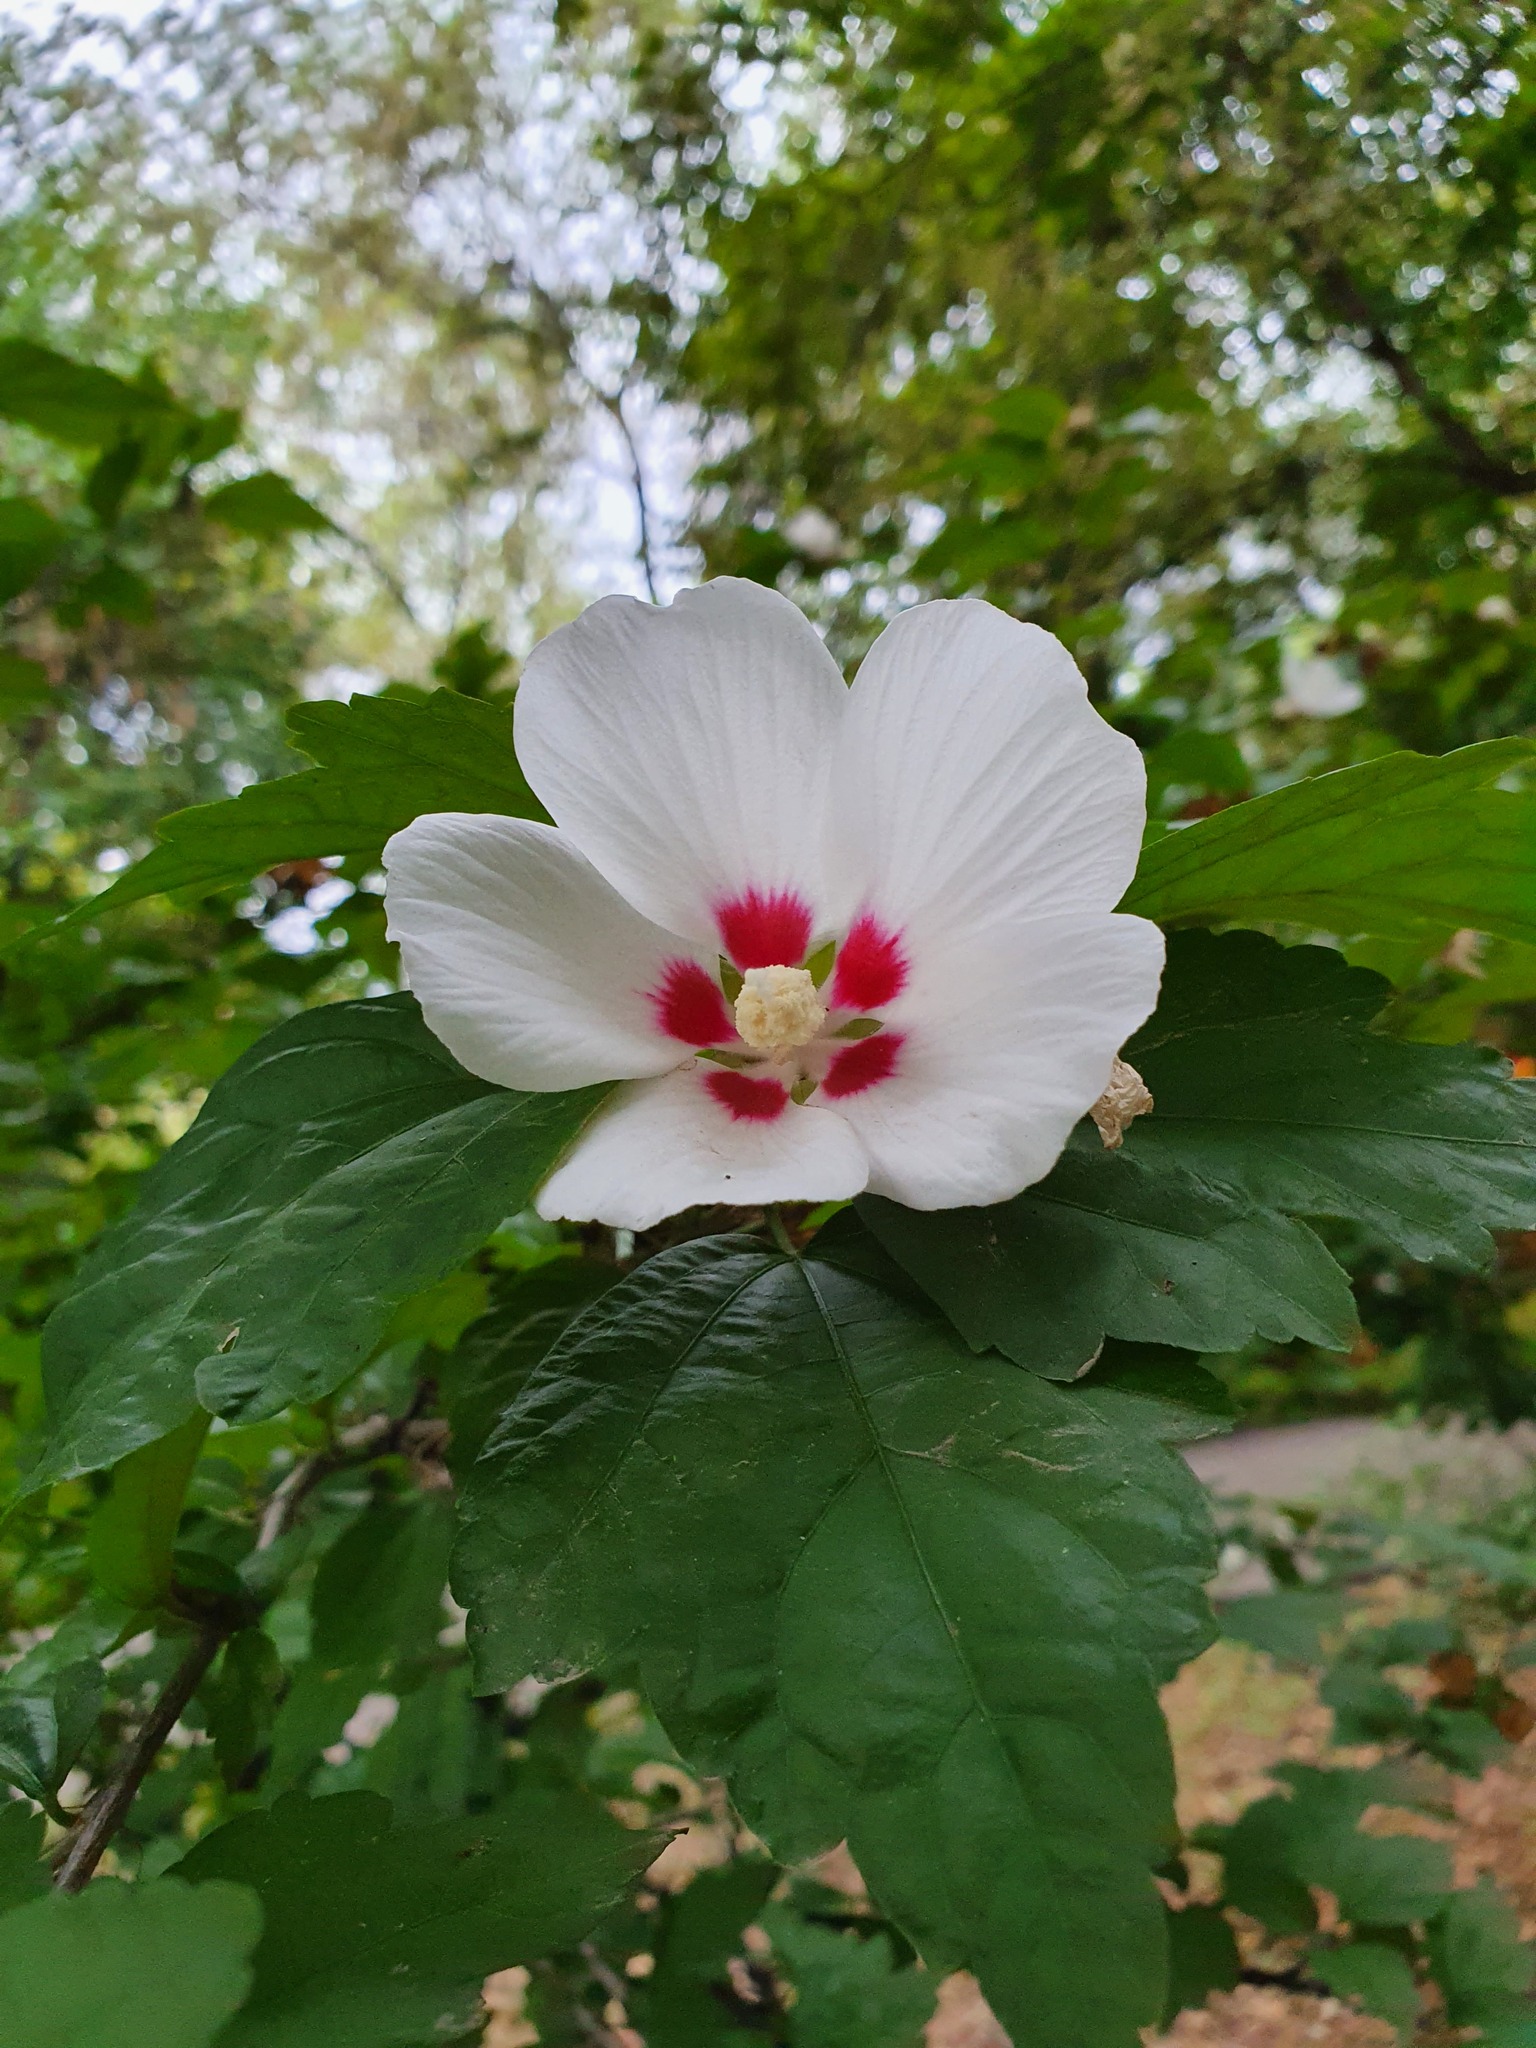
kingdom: Plantae
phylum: Tracheophyta
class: Magnoliopsida
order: Malvales
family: Malvaceae
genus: Hibiscus
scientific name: Hibiscus syriacus
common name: Syrian ketmia
